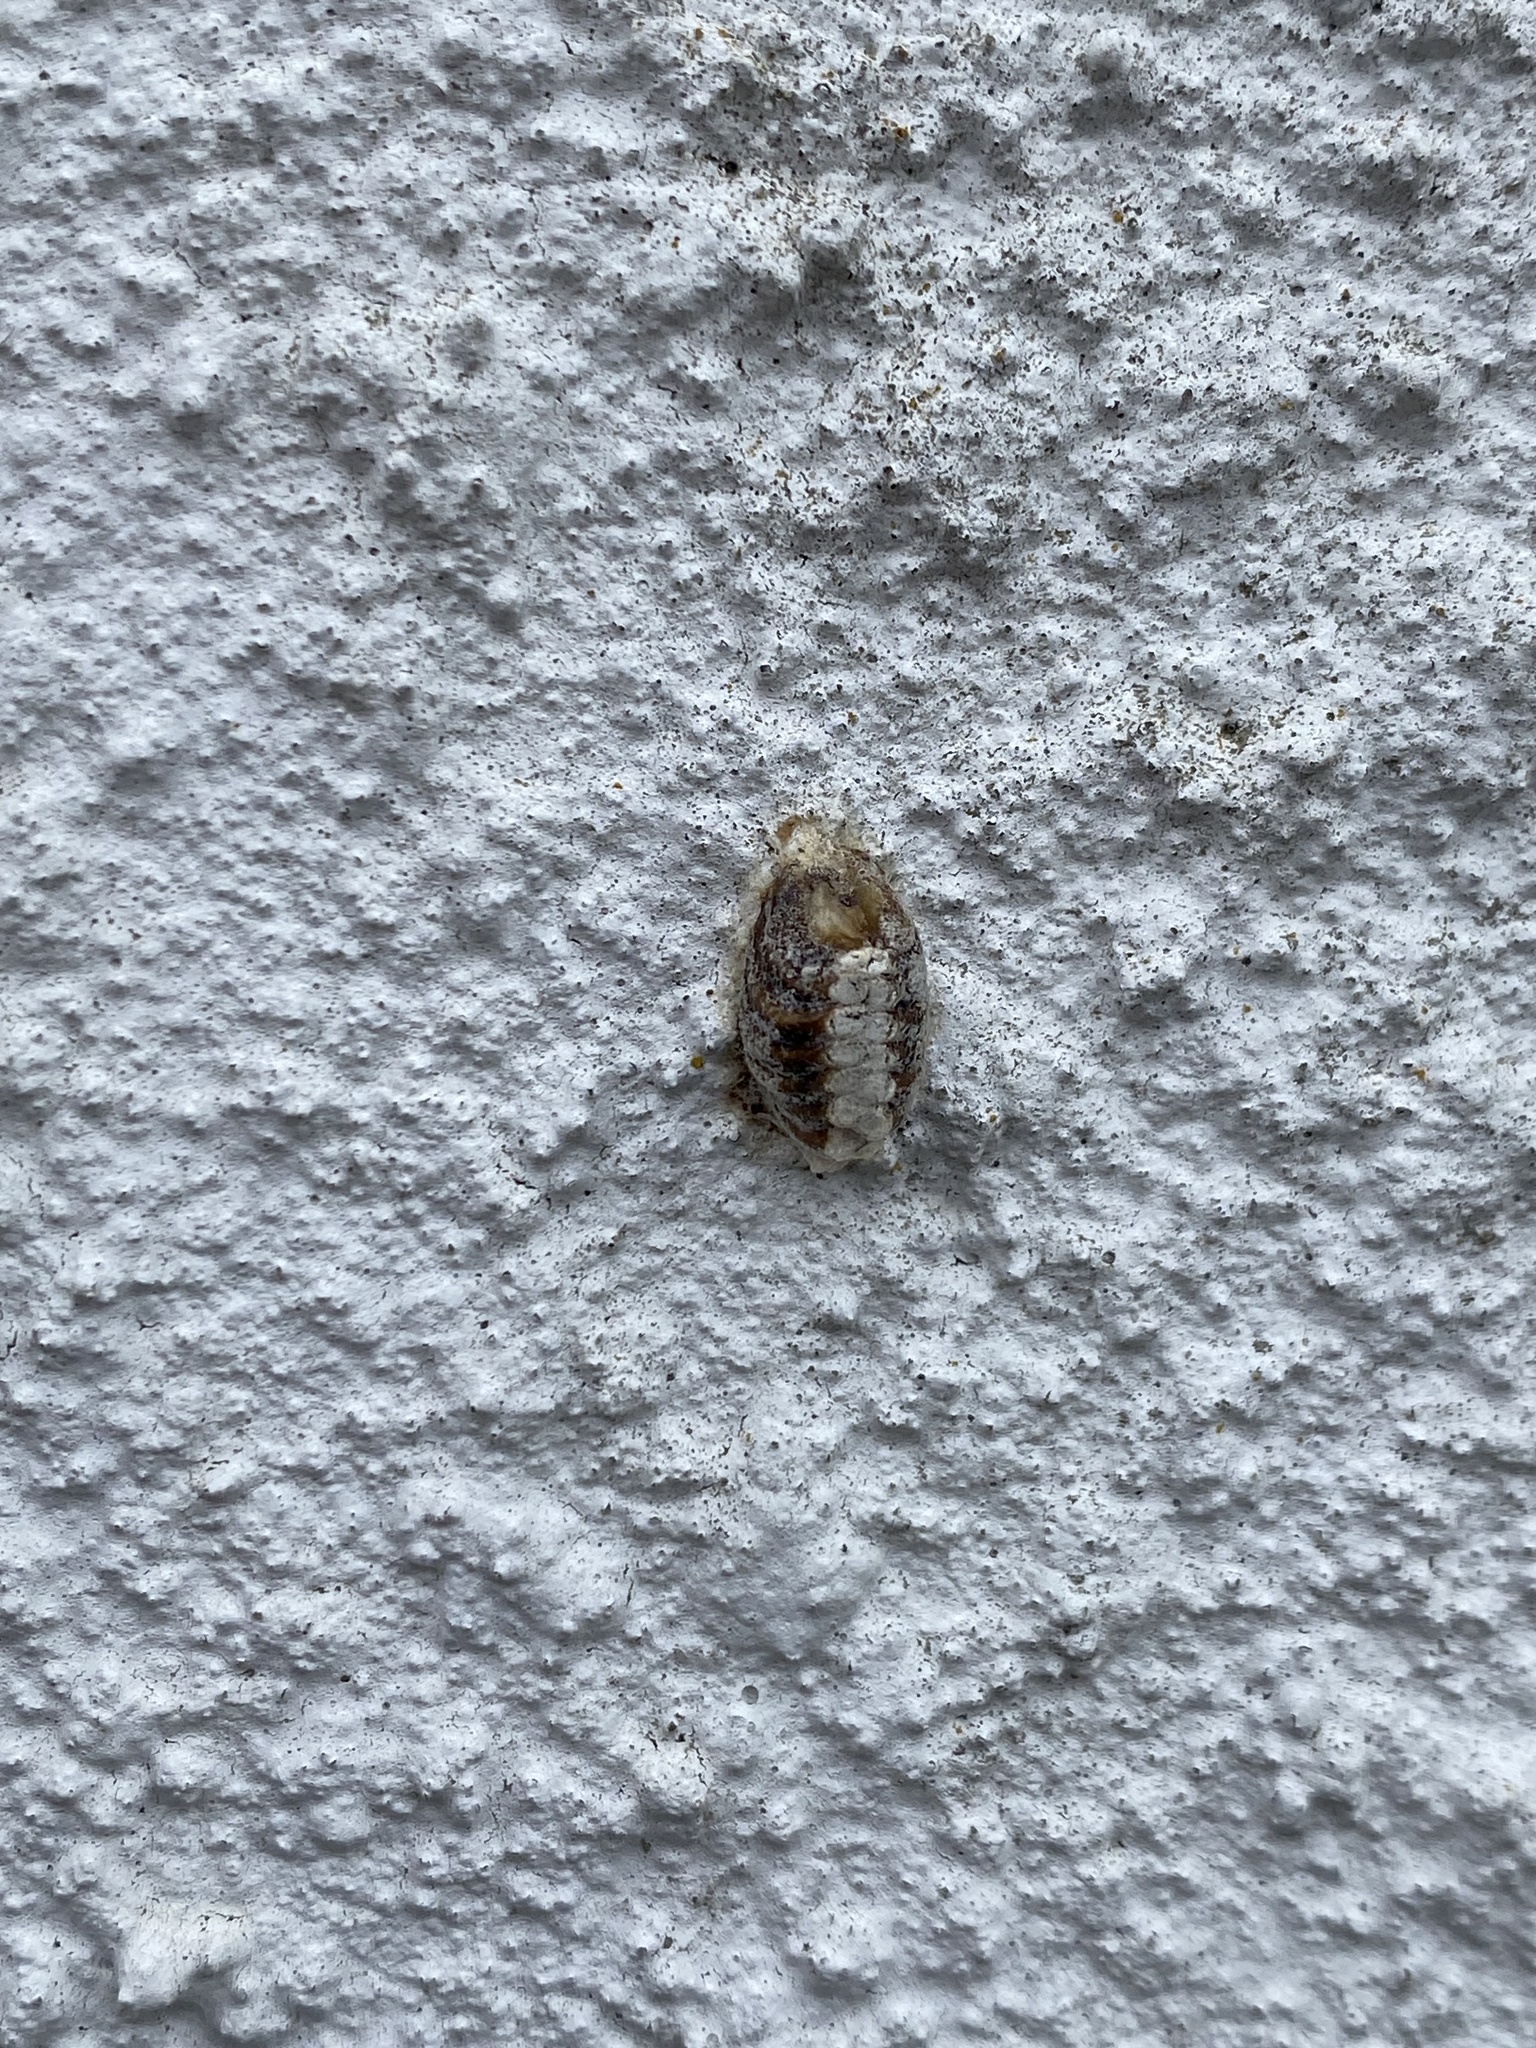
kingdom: Animalia
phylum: Arthropoda
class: Insecta
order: Mantodea
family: Mantidae
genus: Orthodera
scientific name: Orthodera novaezealandiae
